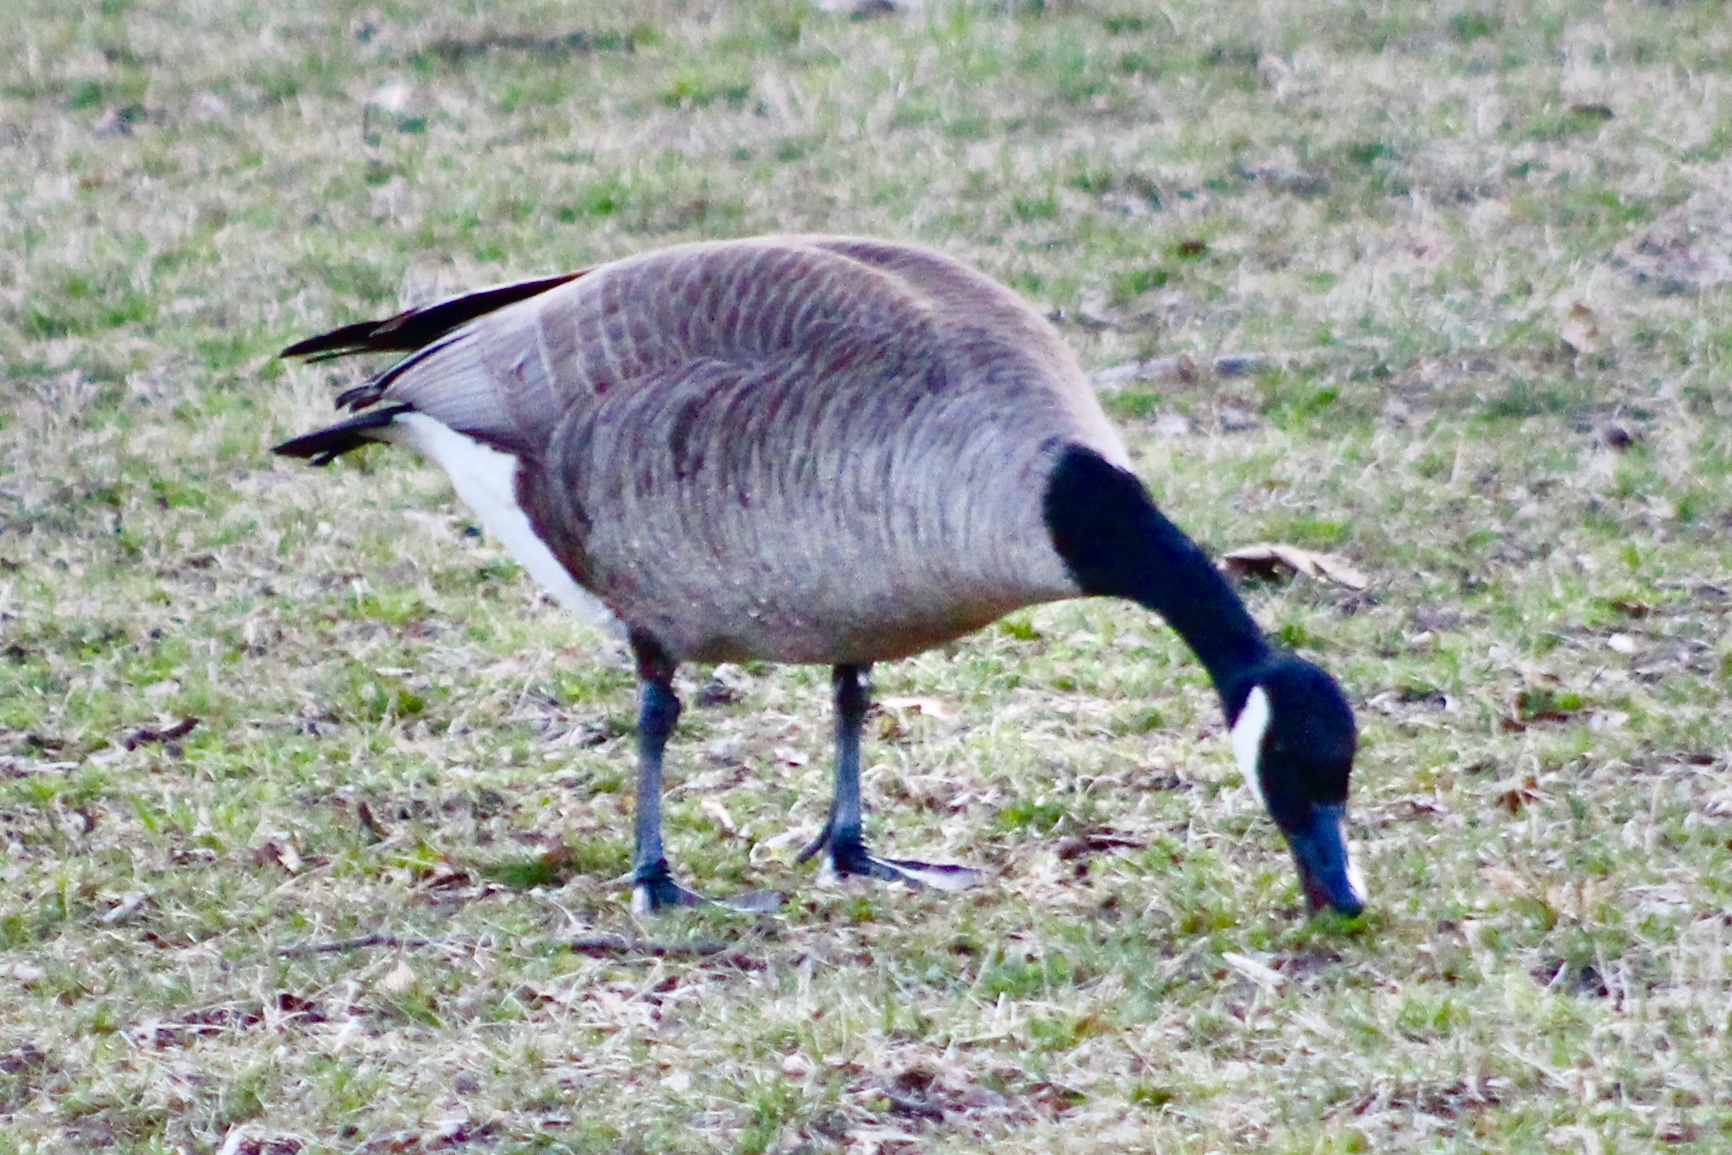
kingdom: Animalia
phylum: Chordata
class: Aves
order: Anseriformes
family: Anatidae
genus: Branta
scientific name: Branta canadensis
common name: Canada goose
